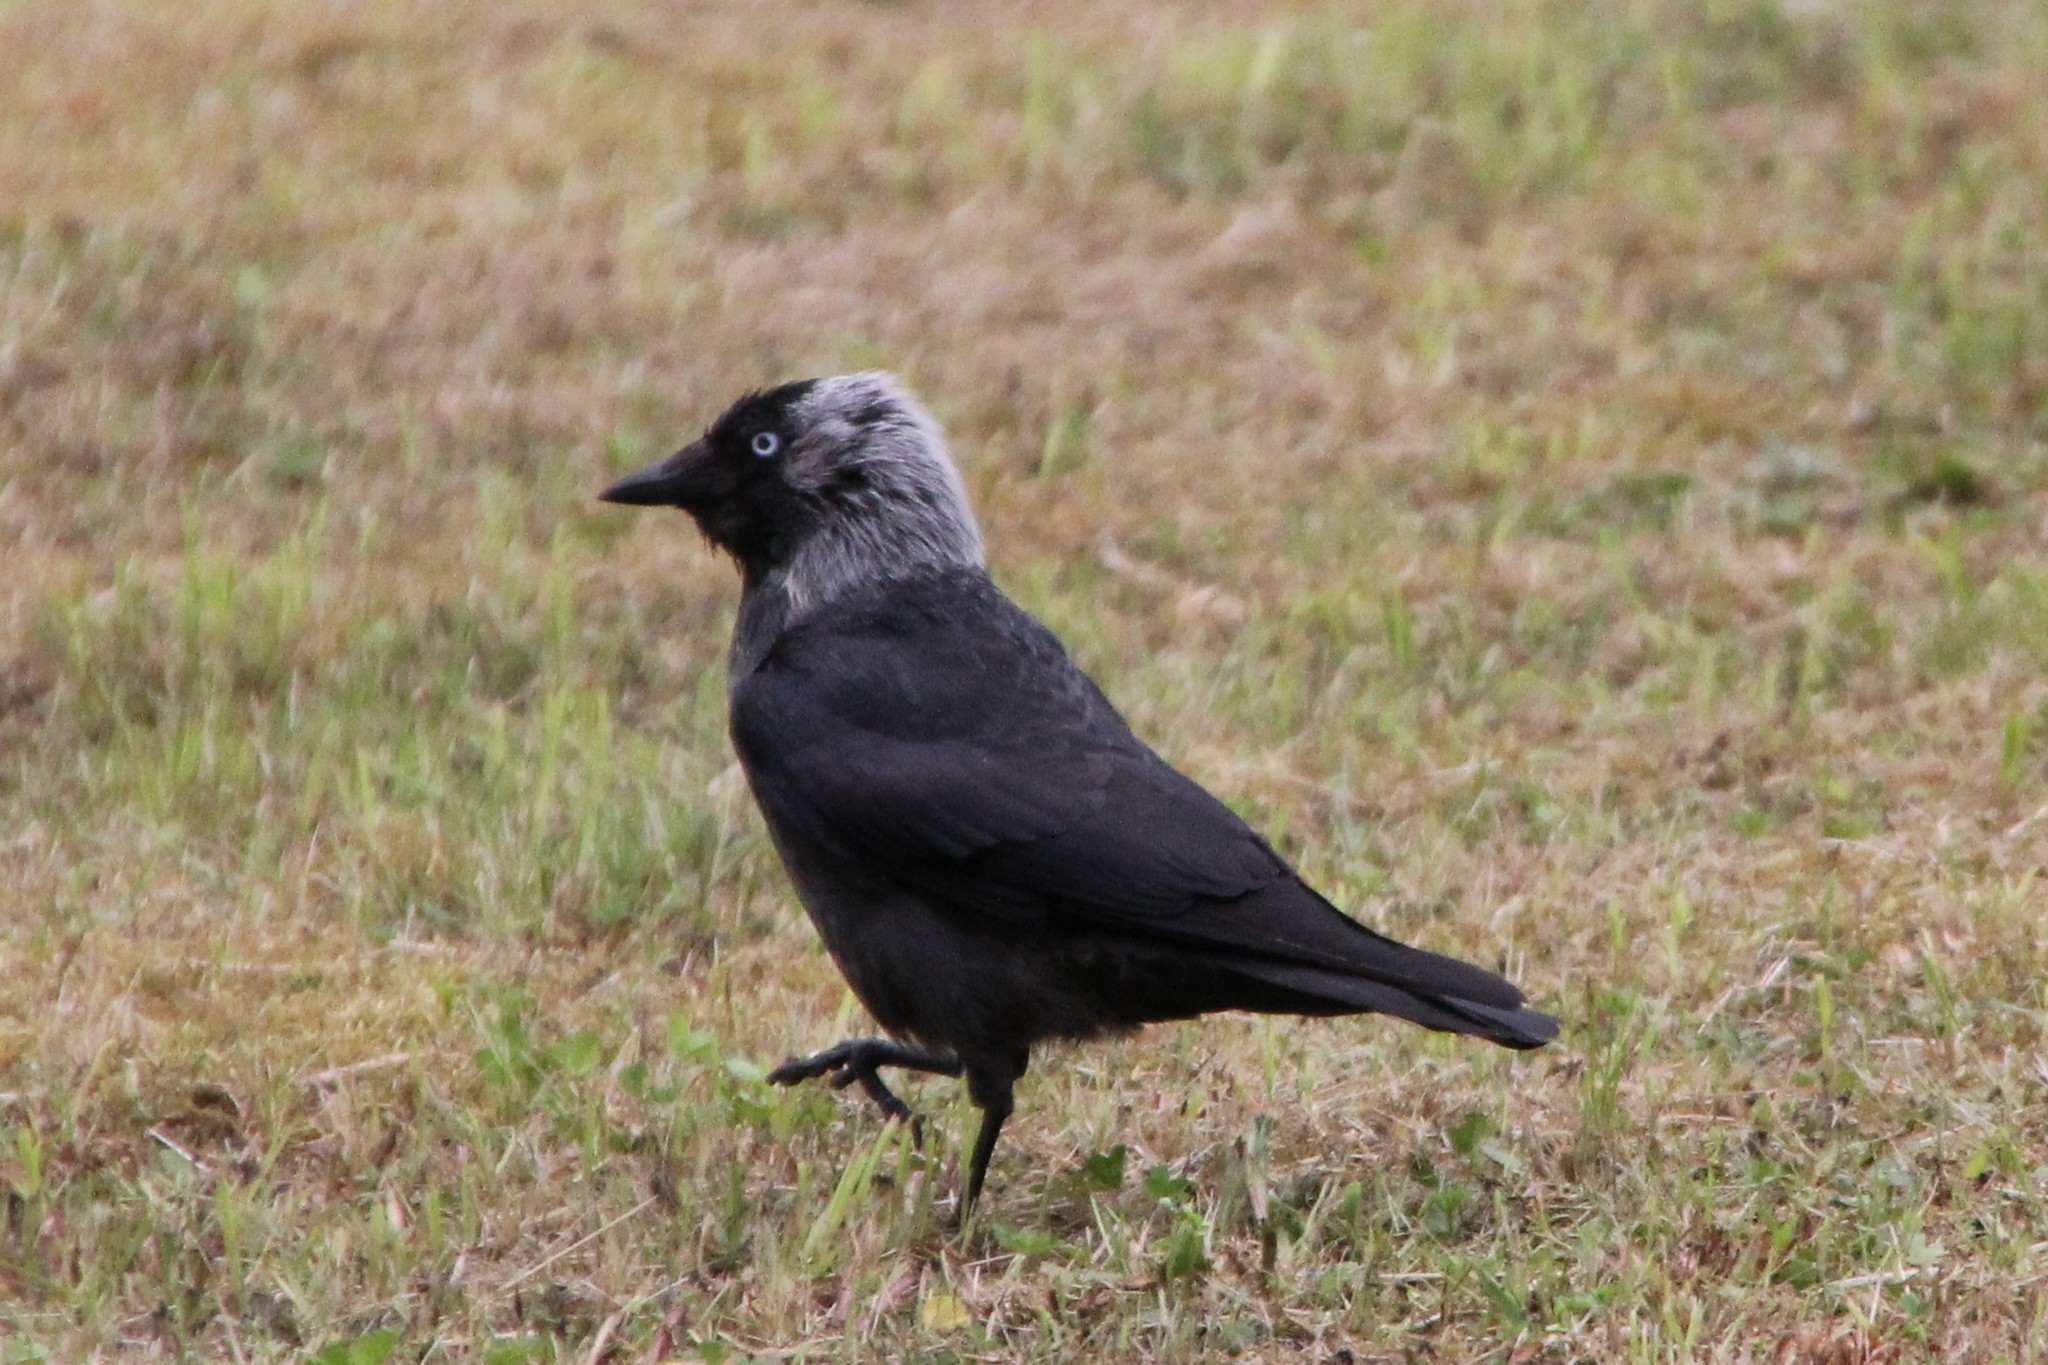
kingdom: Animalia
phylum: Chordata
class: Aves
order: Passeriformes
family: Corvidae
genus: Coloeus
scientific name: Coloeus monedula
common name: Western jackdaw
